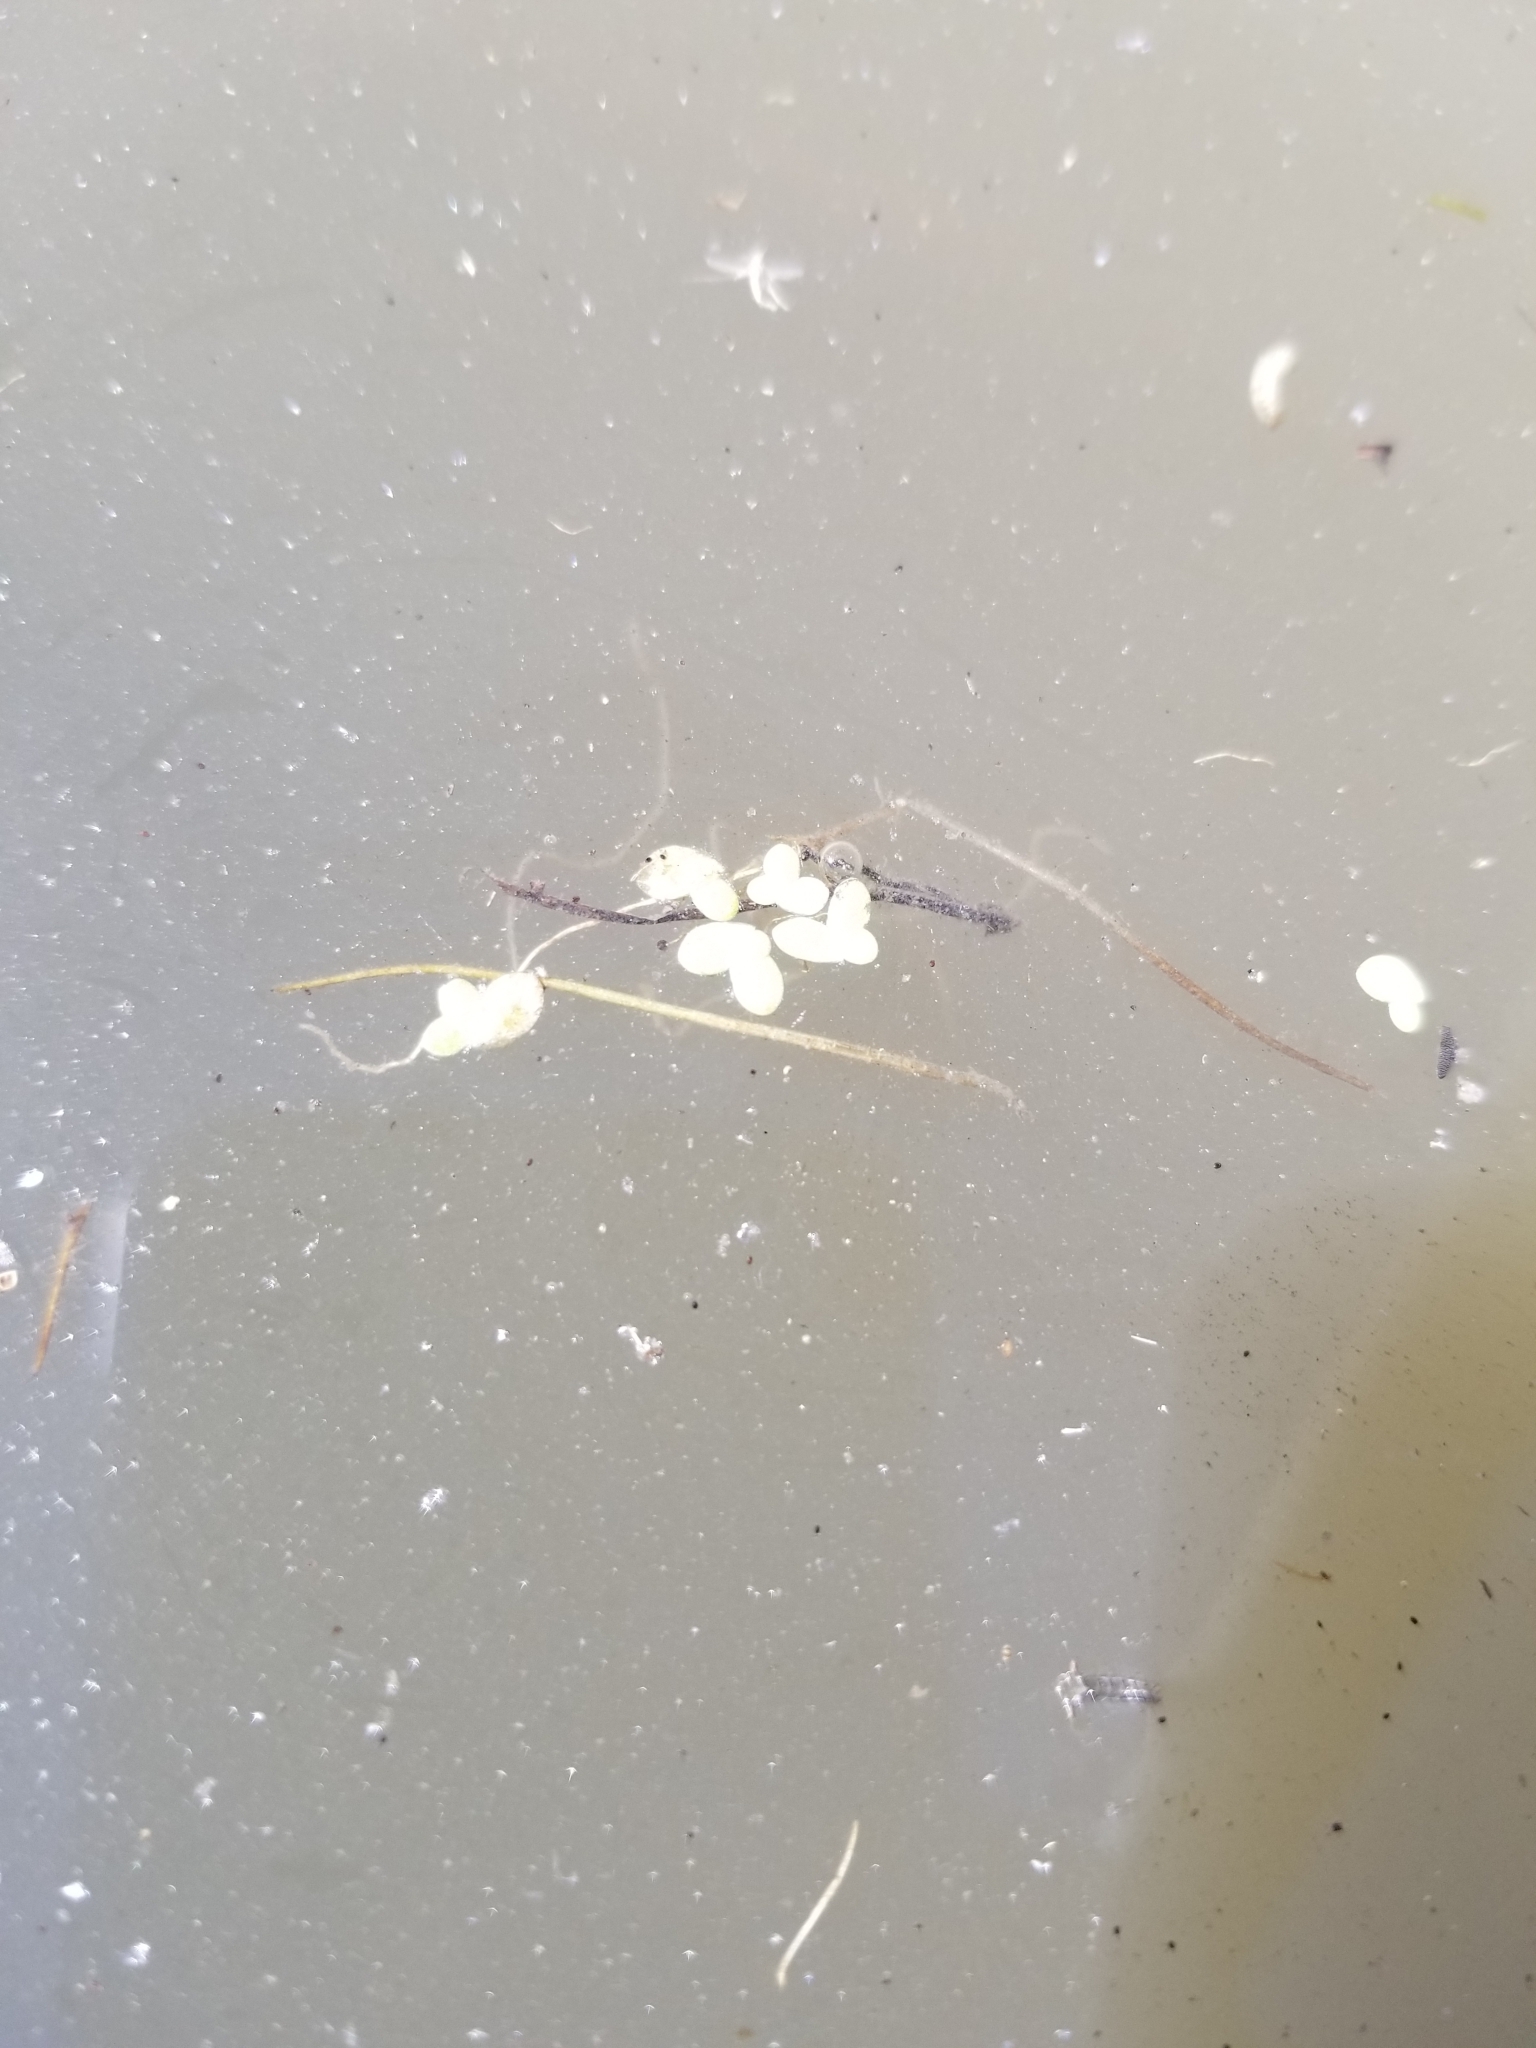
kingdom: Plantae
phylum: Tracheophyta
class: Liliopsida
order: Alismatales
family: Araceae
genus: Lemna
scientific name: Lemna minor
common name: Common duckweed
